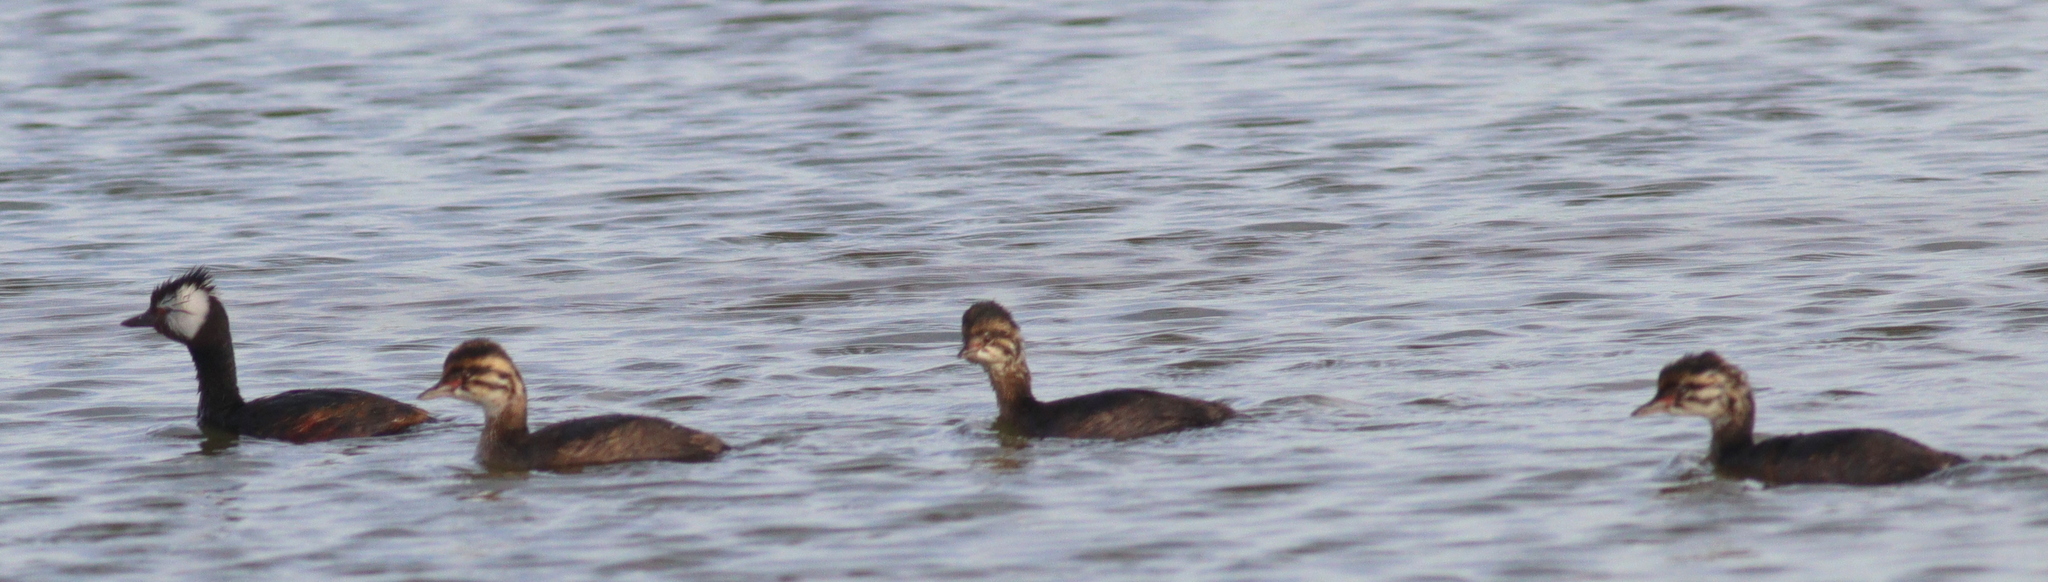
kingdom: Animalia
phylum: Chordata
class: Aves
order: Podicipediformes
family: Podicipedidae
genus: Rollandia
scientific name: Rollandia rolland
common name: White-tufted grebe
